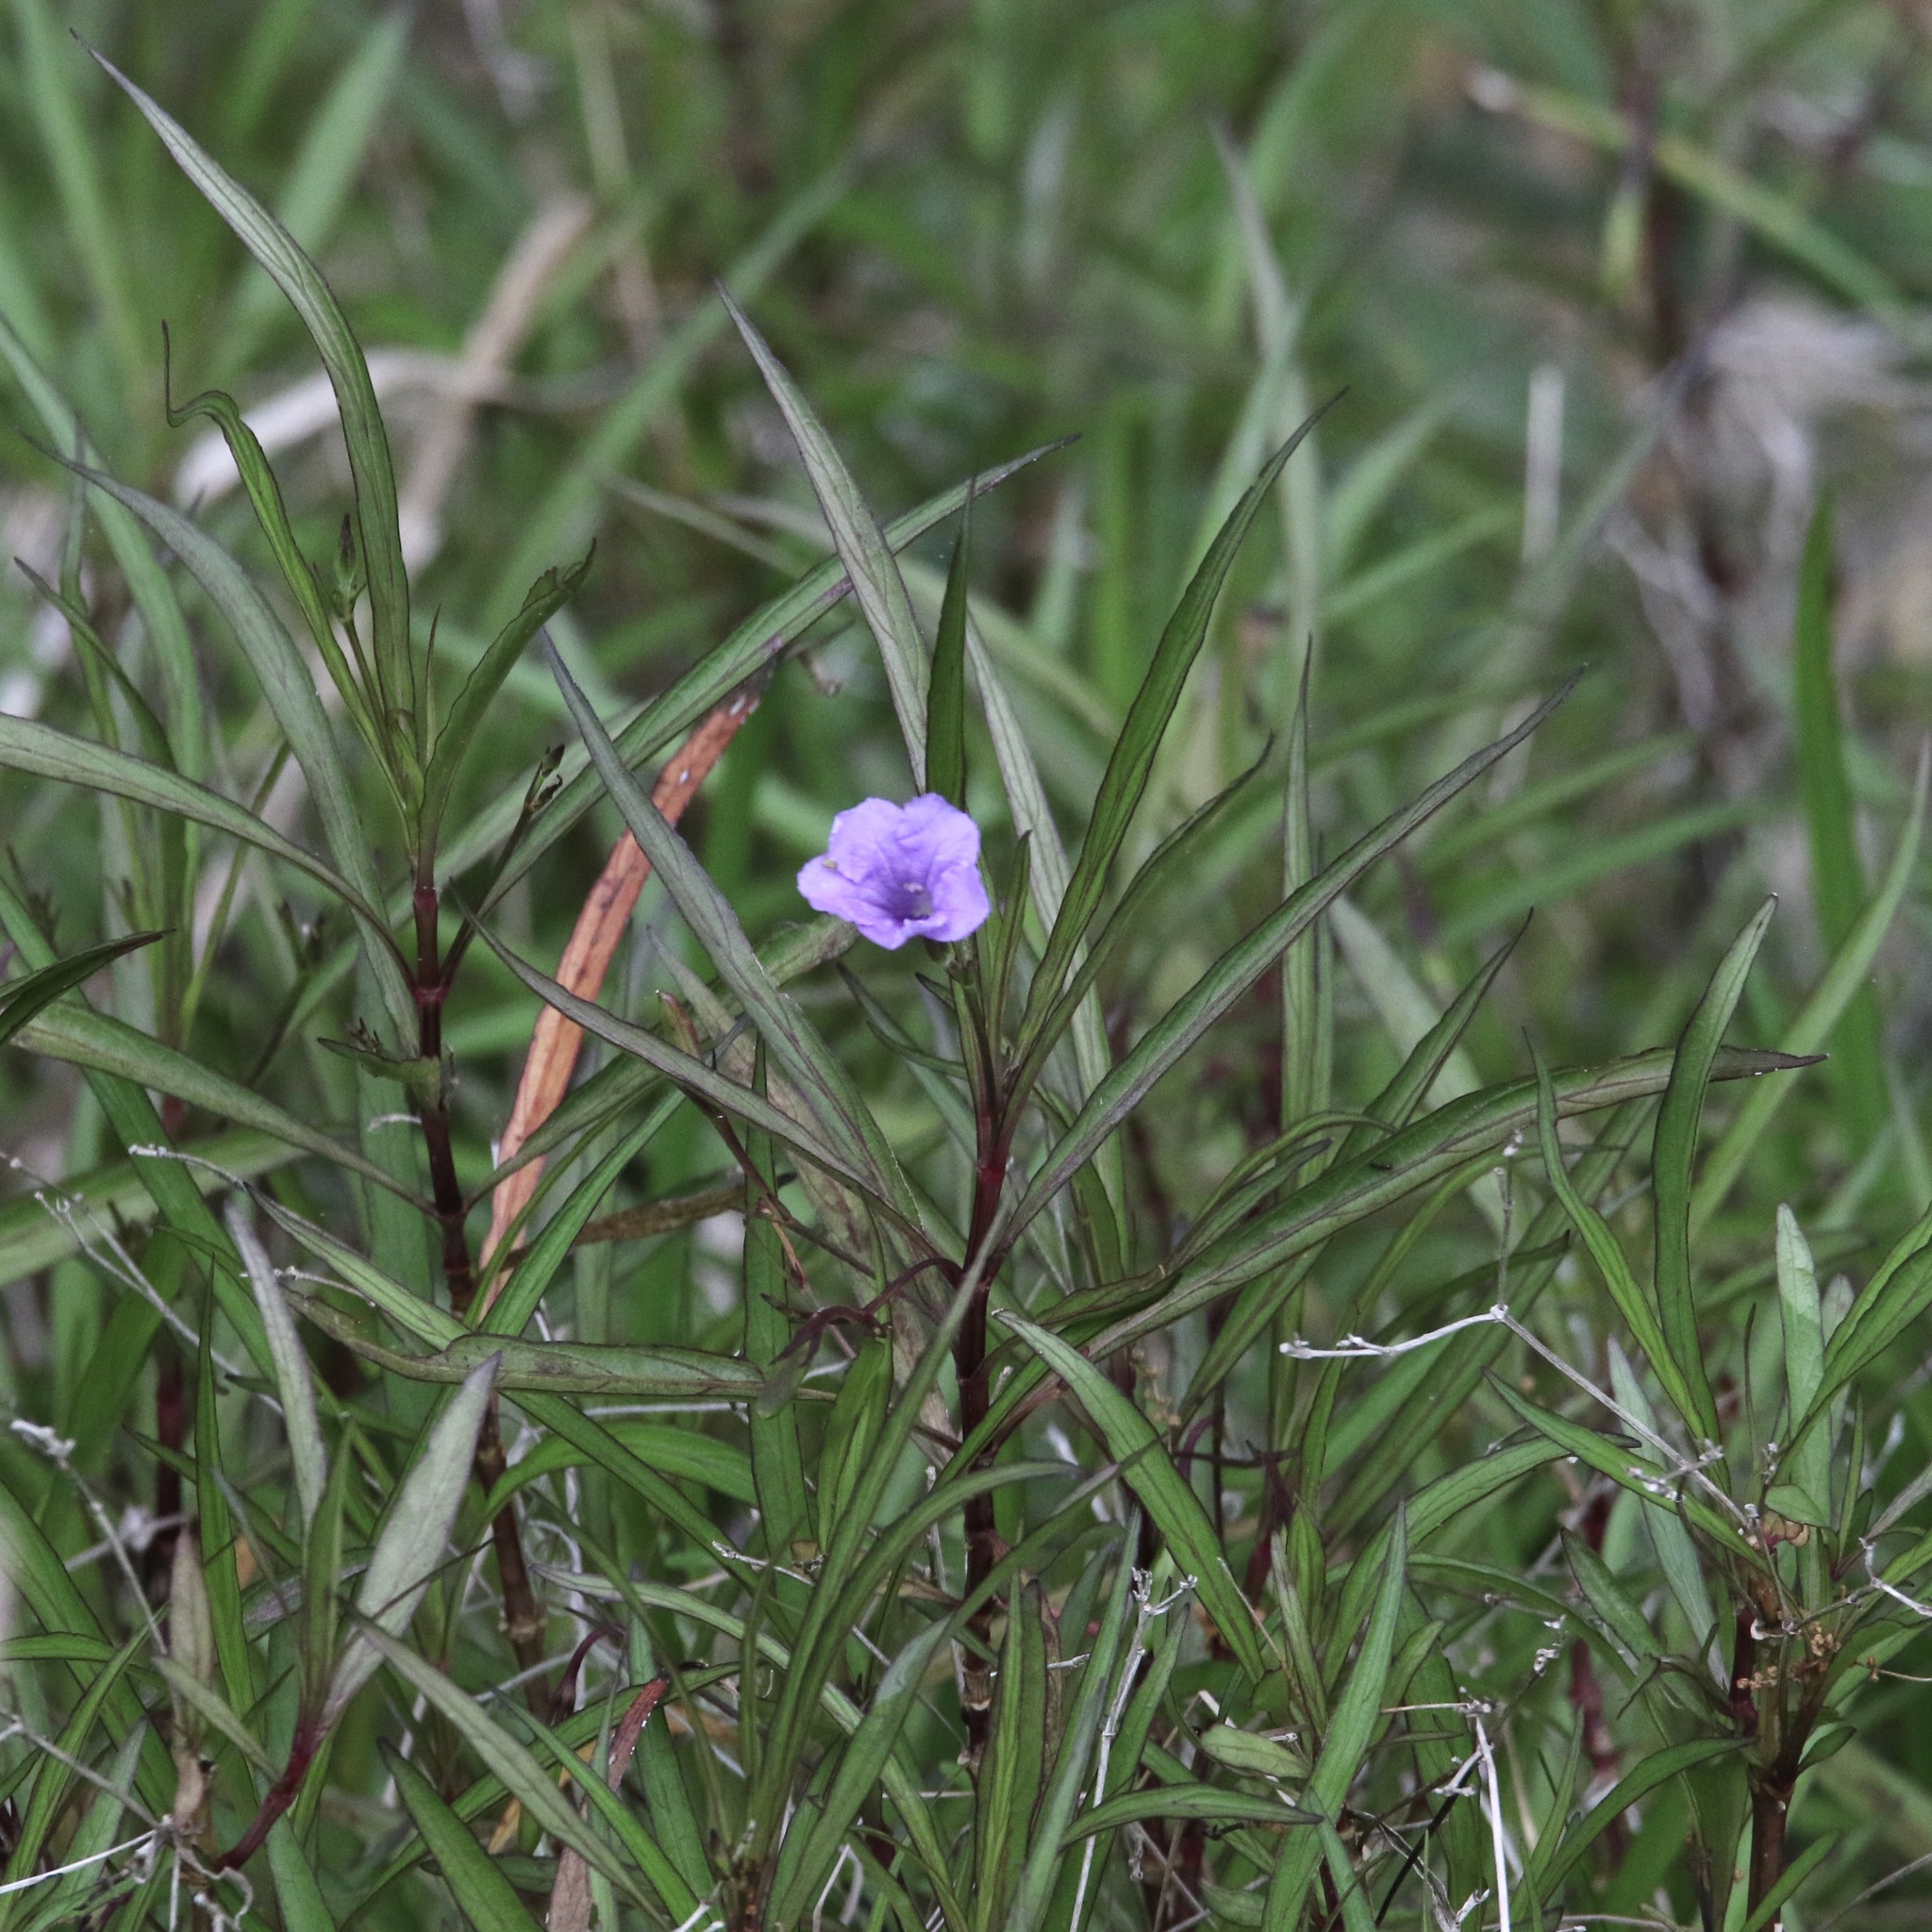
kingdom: Plantae
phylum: Tracheophyta
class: Magnoliopsida
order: Lamiales
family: Acanthaceae
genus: Ruellia
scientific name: Ruellia simplex
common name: Softseed wild petunia
